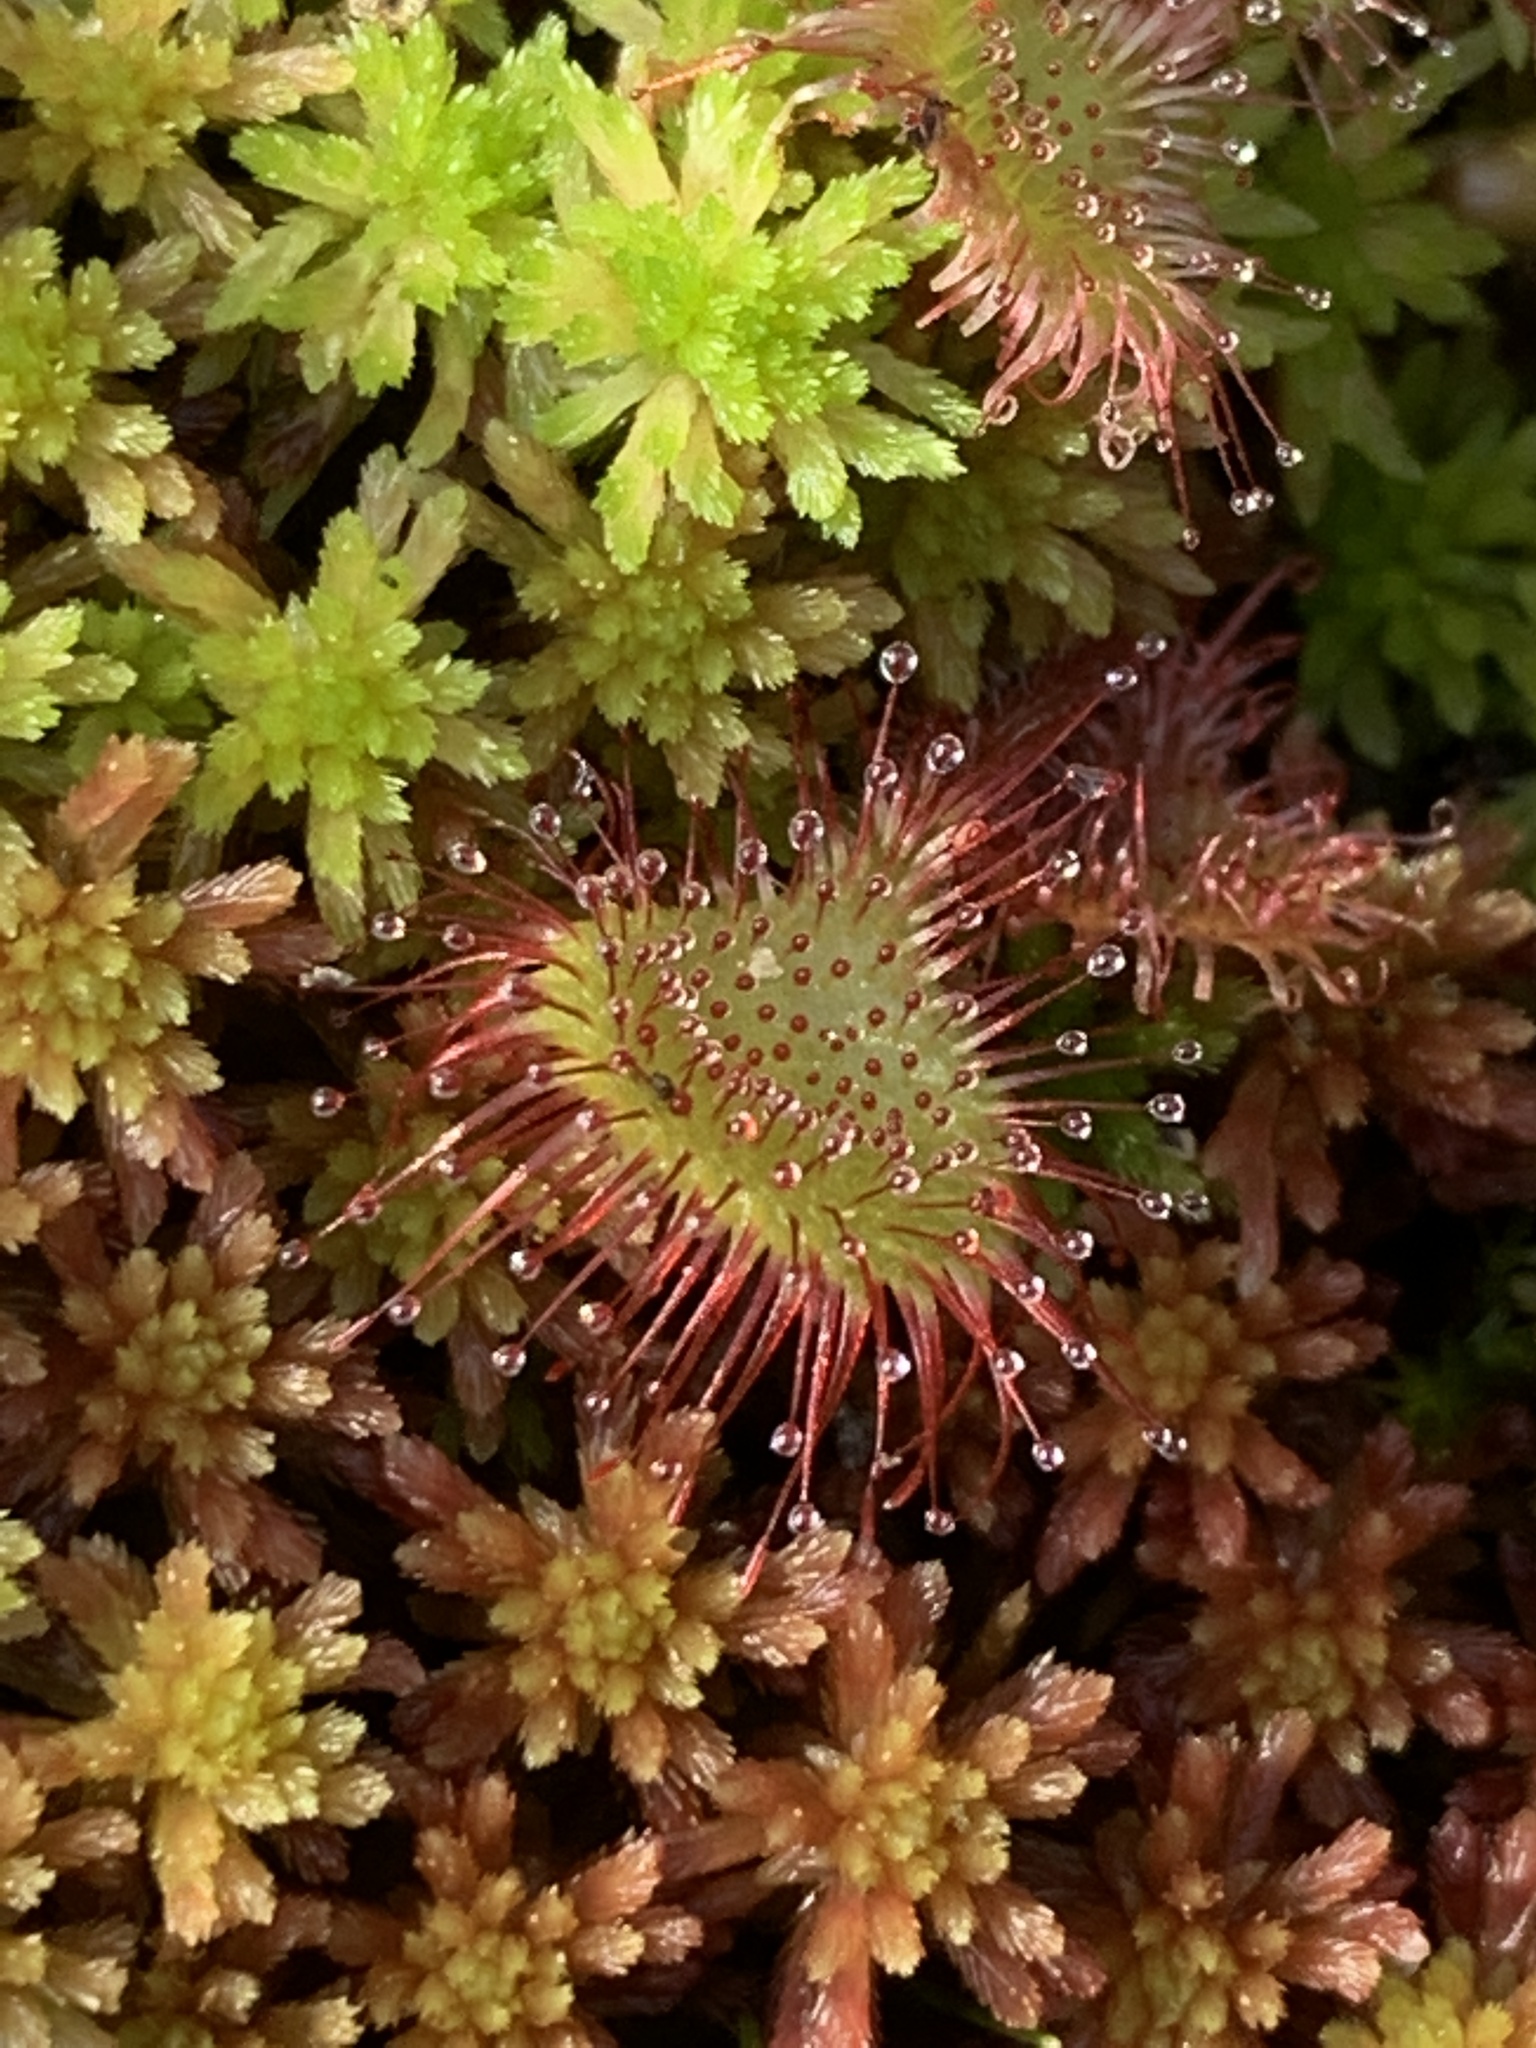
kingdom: Plantae
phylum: Tracheophyta
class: Magnoliopsida
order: Caryophyllales
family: Droseraceae
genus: Drosera
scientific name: Drosera rotundifolia
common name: Round-leaved sundew
